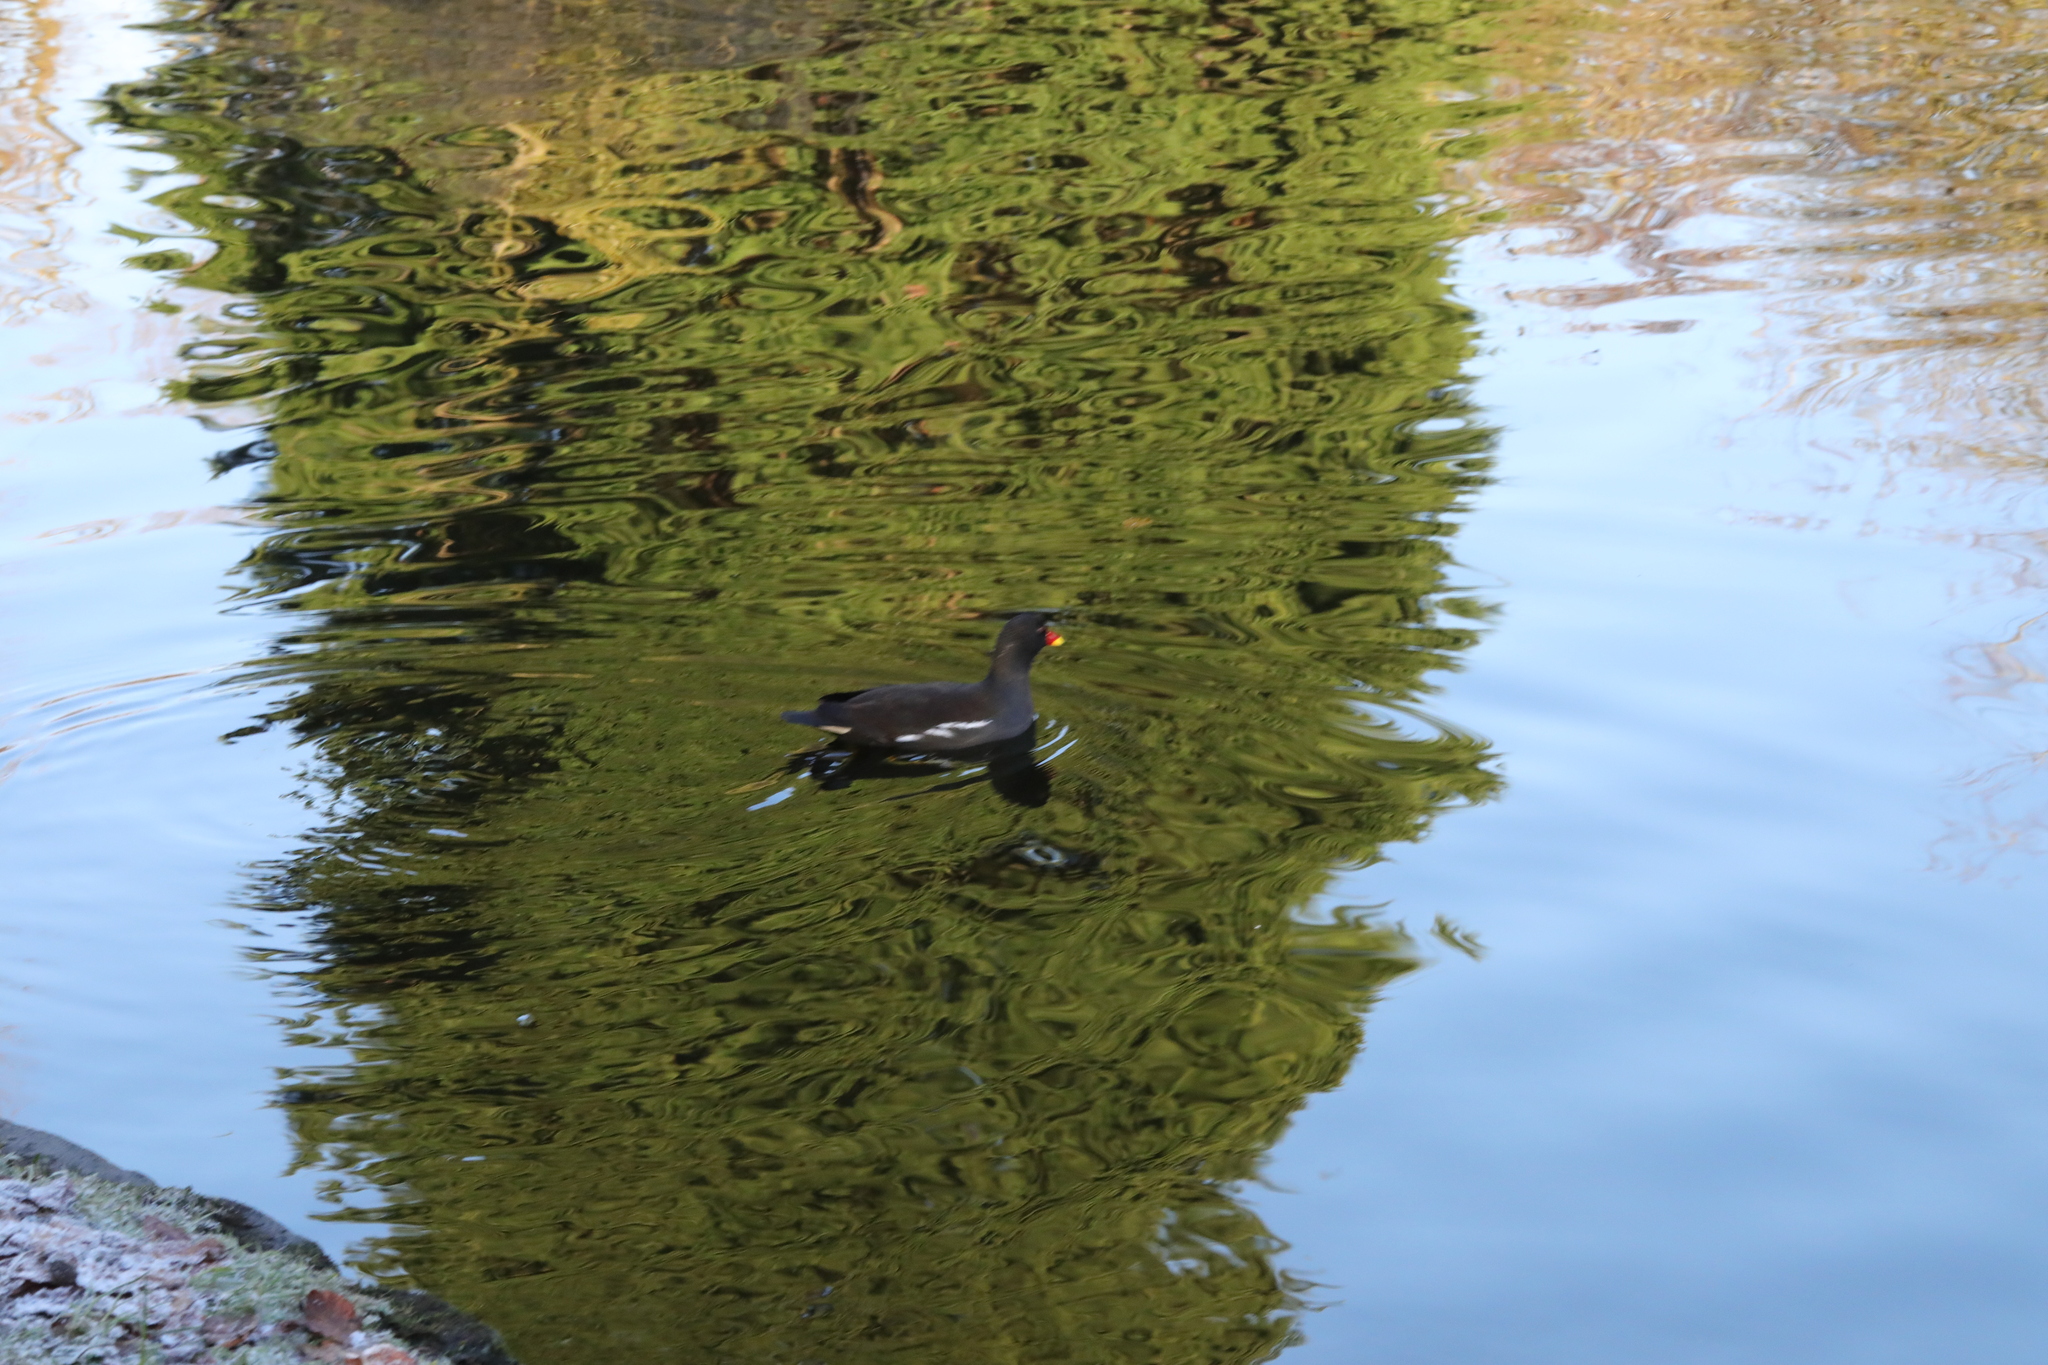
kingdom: Animalia
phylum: Chordata
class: Aves
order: Gruiformes
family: Rallidae
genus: Gallinula
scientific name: Gallinula chloropus
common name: Common moorhen
